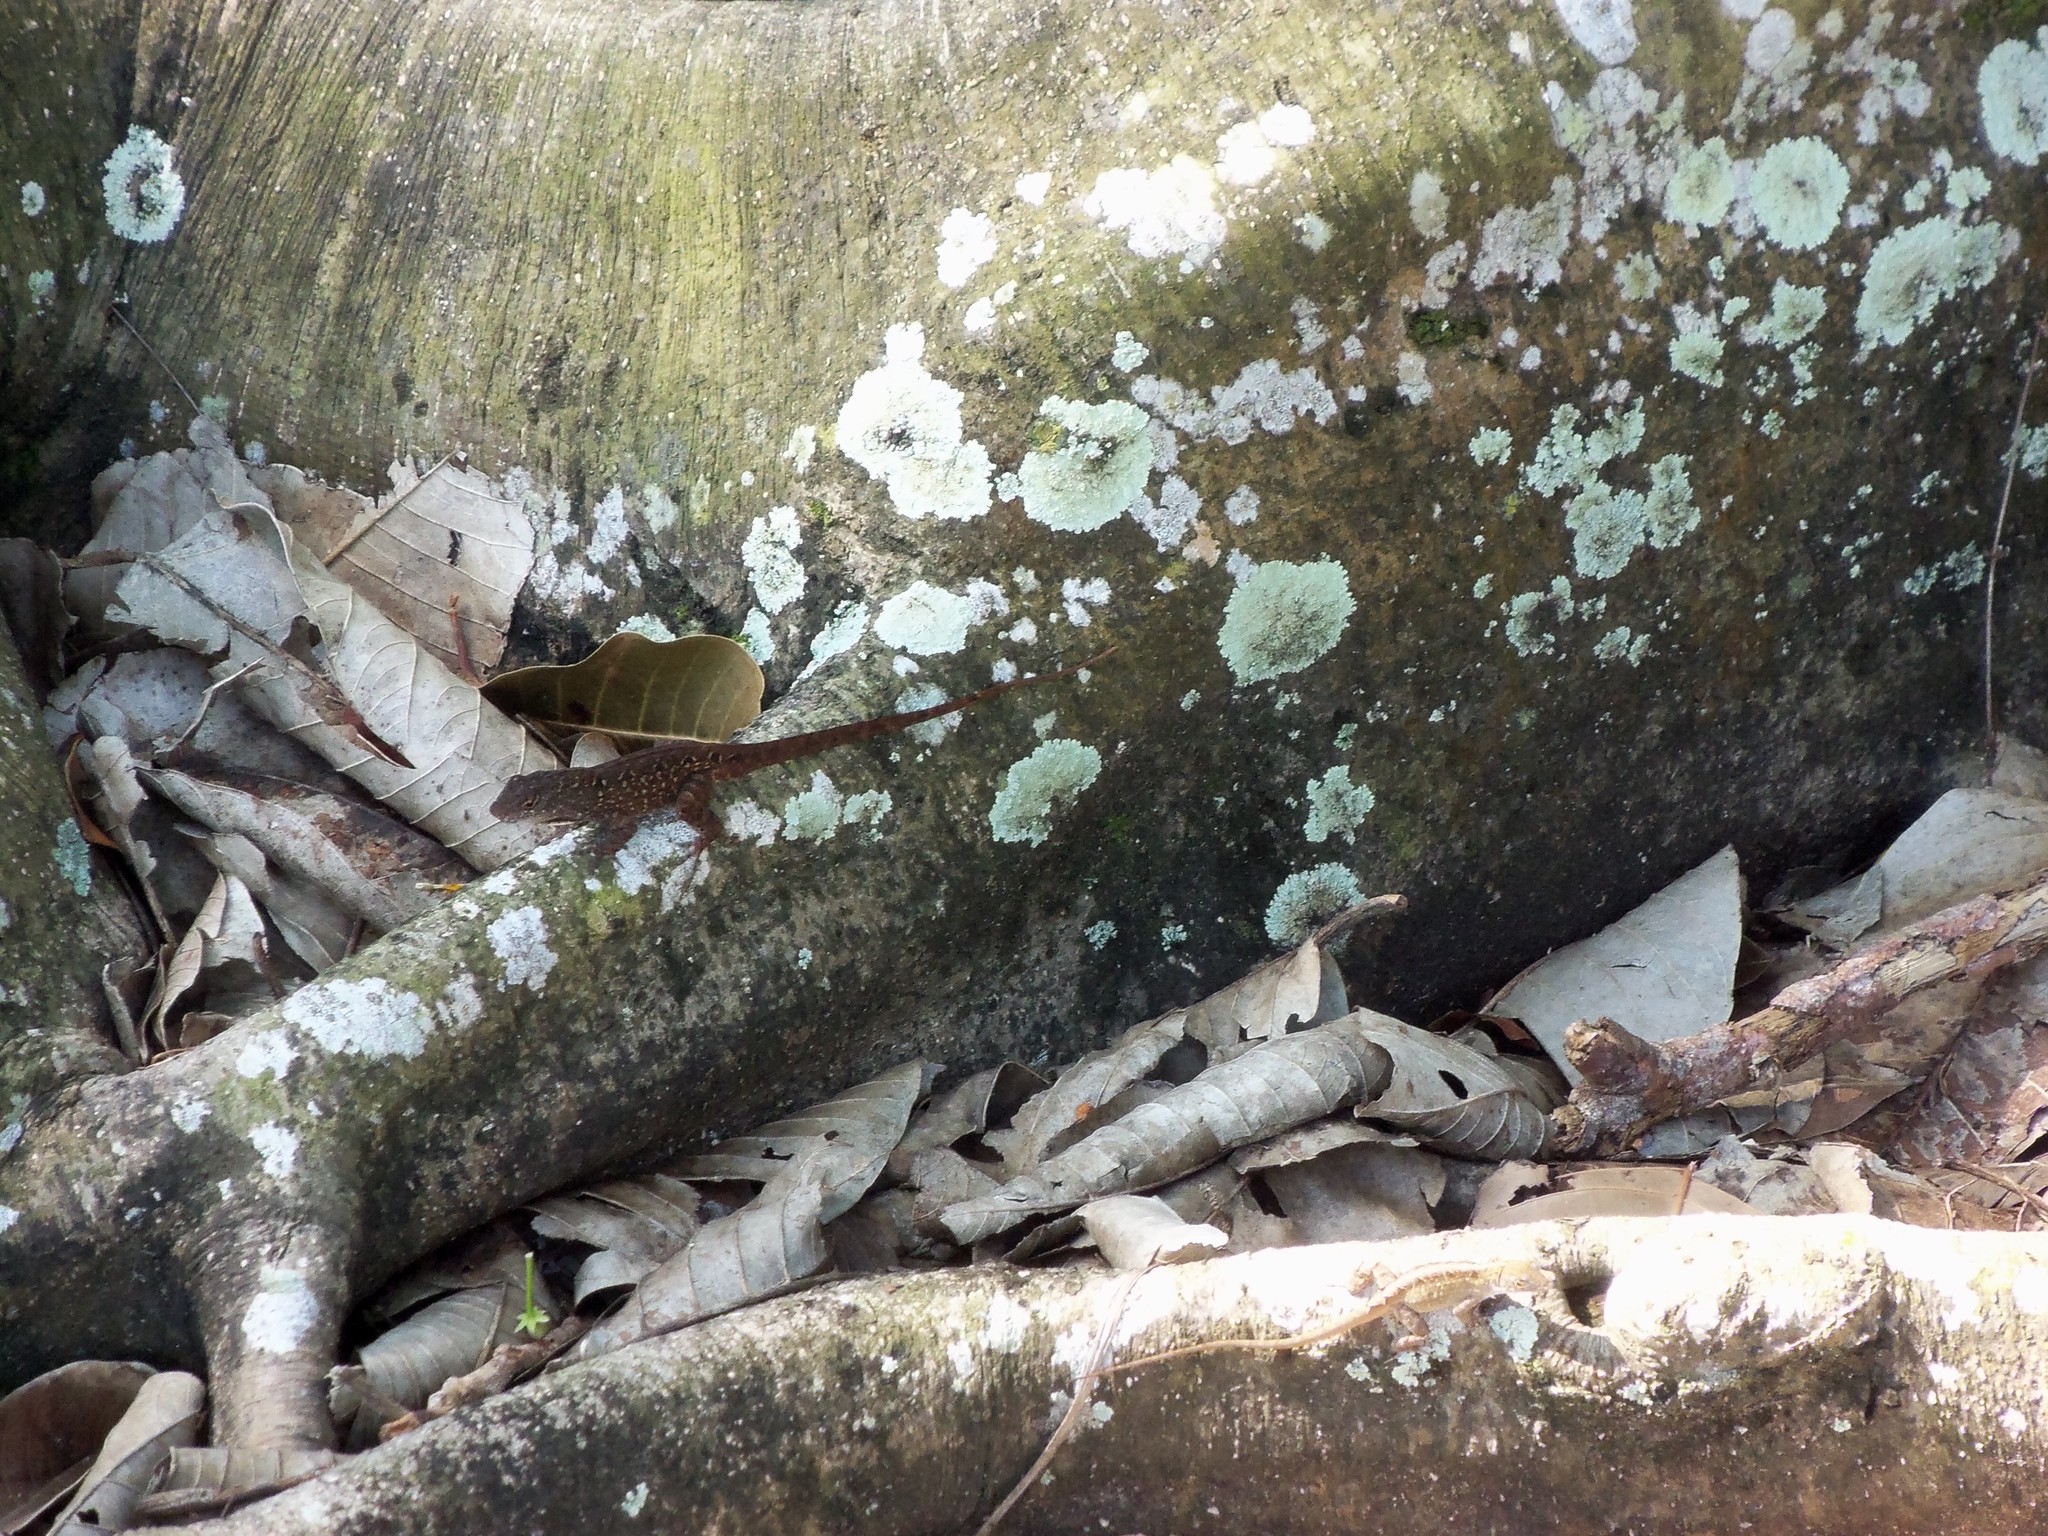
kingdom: Animalia
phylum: Chordata
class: Squamata
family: Dactyloidae
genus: Anolis
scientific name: Anolis sagrei
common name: Brown anole
